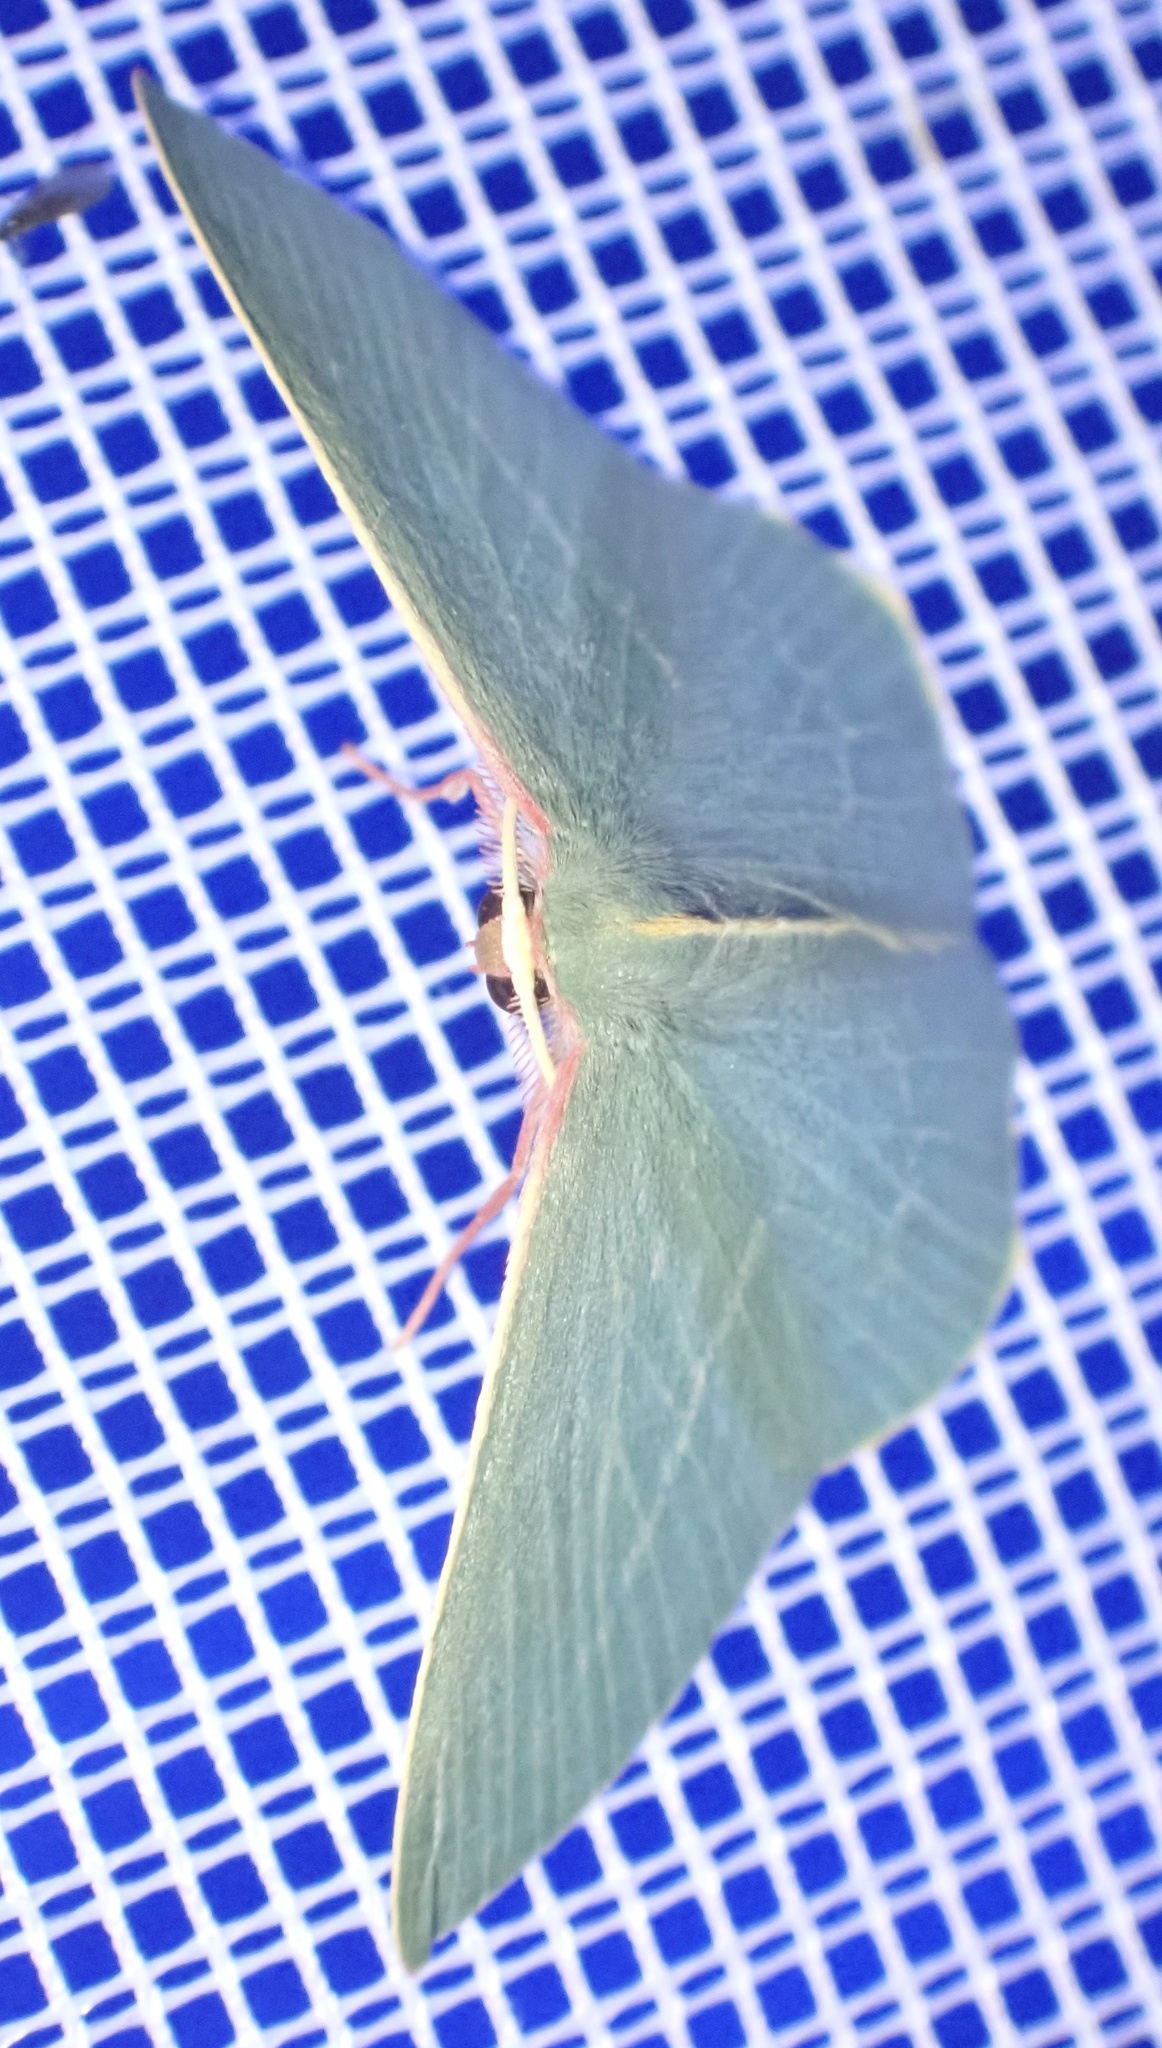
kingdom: Animalia
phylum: Arthropoda
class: Insecta
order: Lepidoptera
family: Geometridae
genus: Chlorocoma
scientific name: Chlorocoma carenaria
